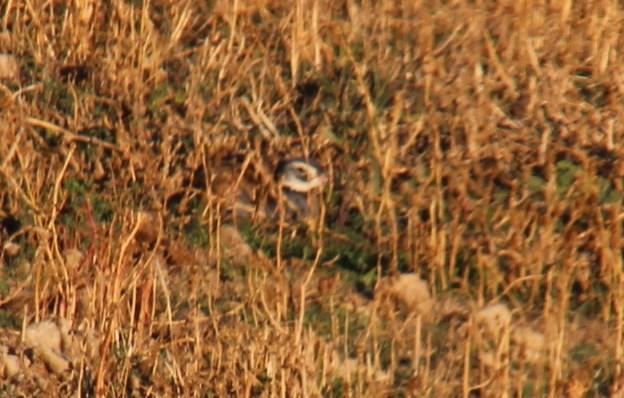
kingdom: Animalia
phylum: Chordata
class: Aves
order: Otidiformes
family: Otididae
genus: Eupodotis
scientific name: Eupodotis caerulescens
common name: Blue korhaan
